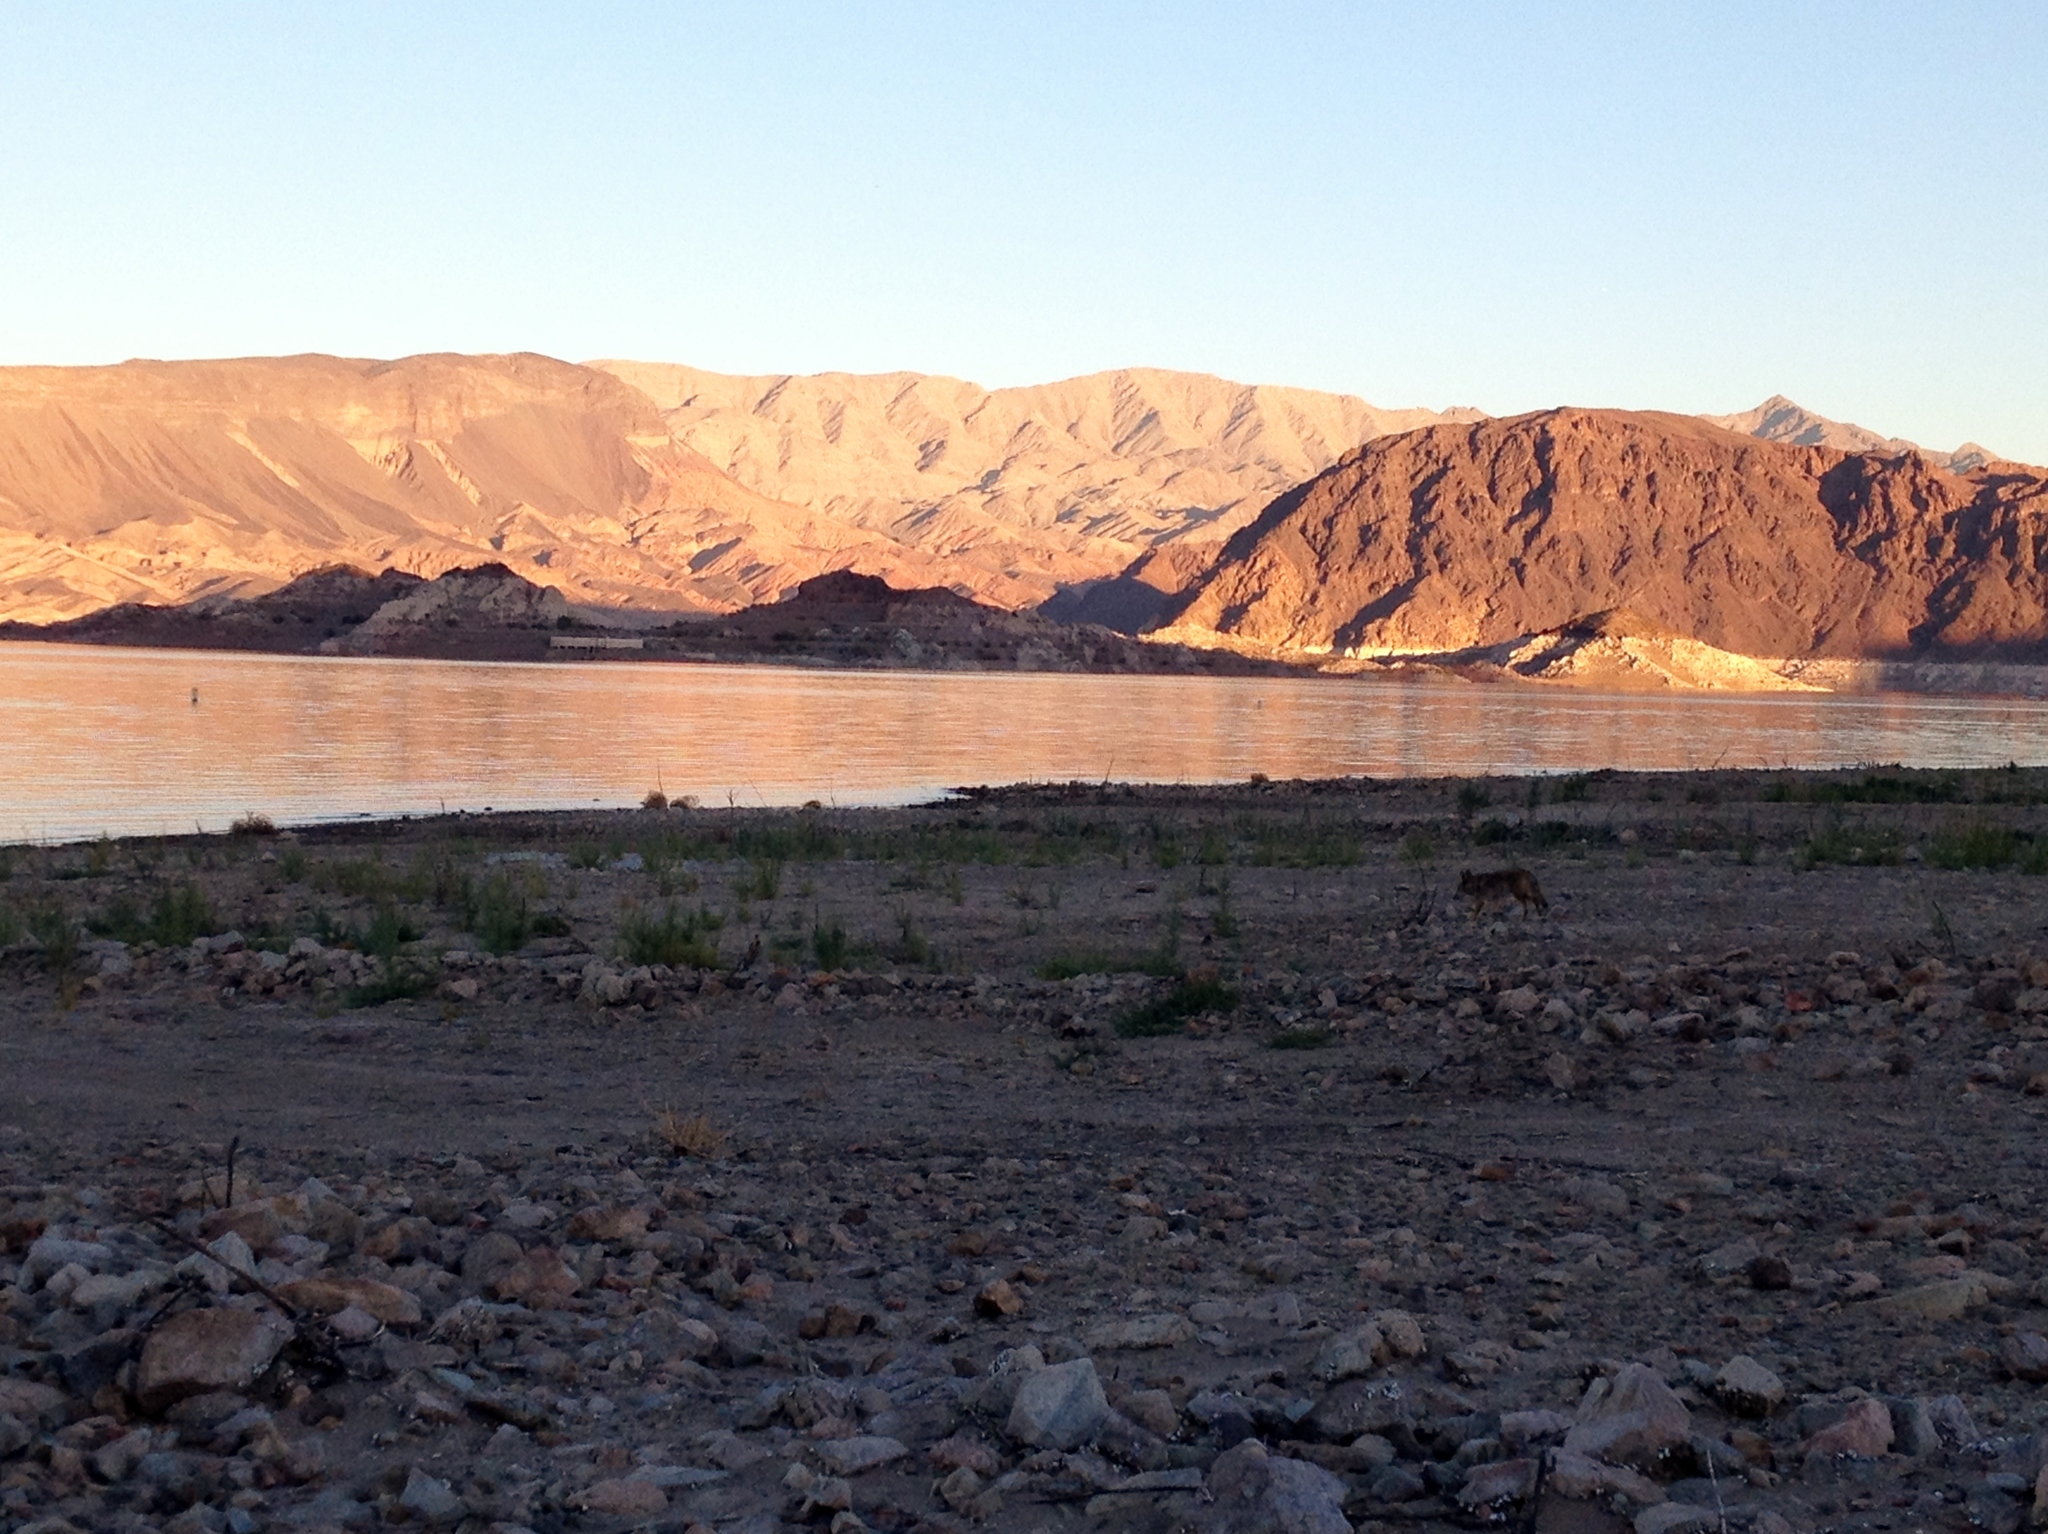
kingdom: Animalia
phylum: Chordata
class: Mammalia
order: Carnivora
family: Canidae
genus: Canis
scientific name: Canis latrans
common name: Coyote
